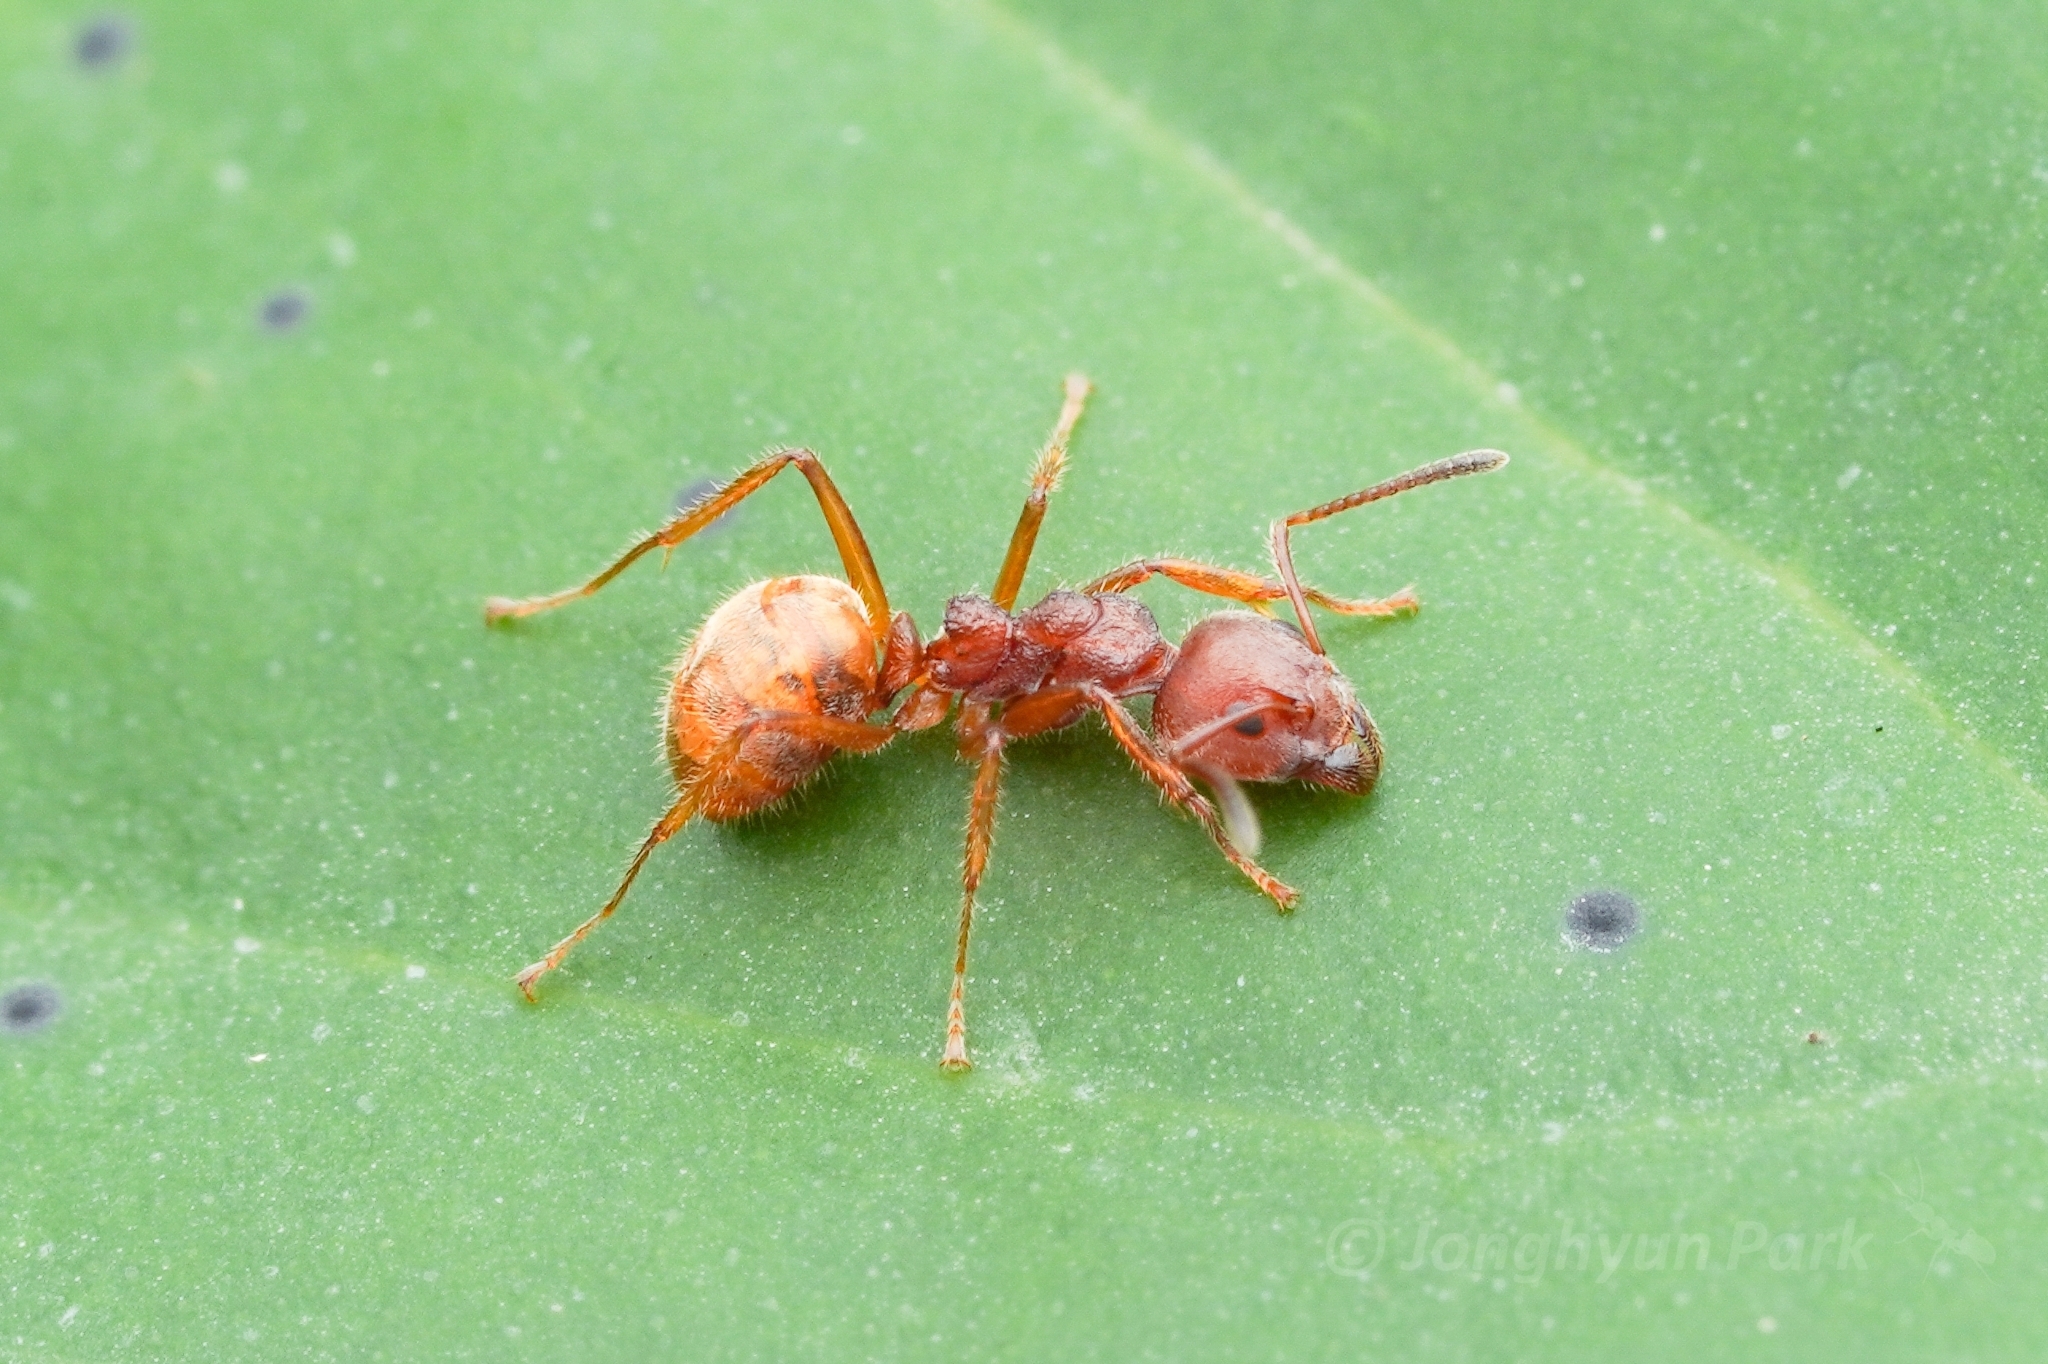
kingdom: Animalia
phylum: Arthropoda
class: Insecta
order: Hymenoptera
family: Formicidae
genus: Dolichoderus
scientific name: Dolichoderus thoracicus
